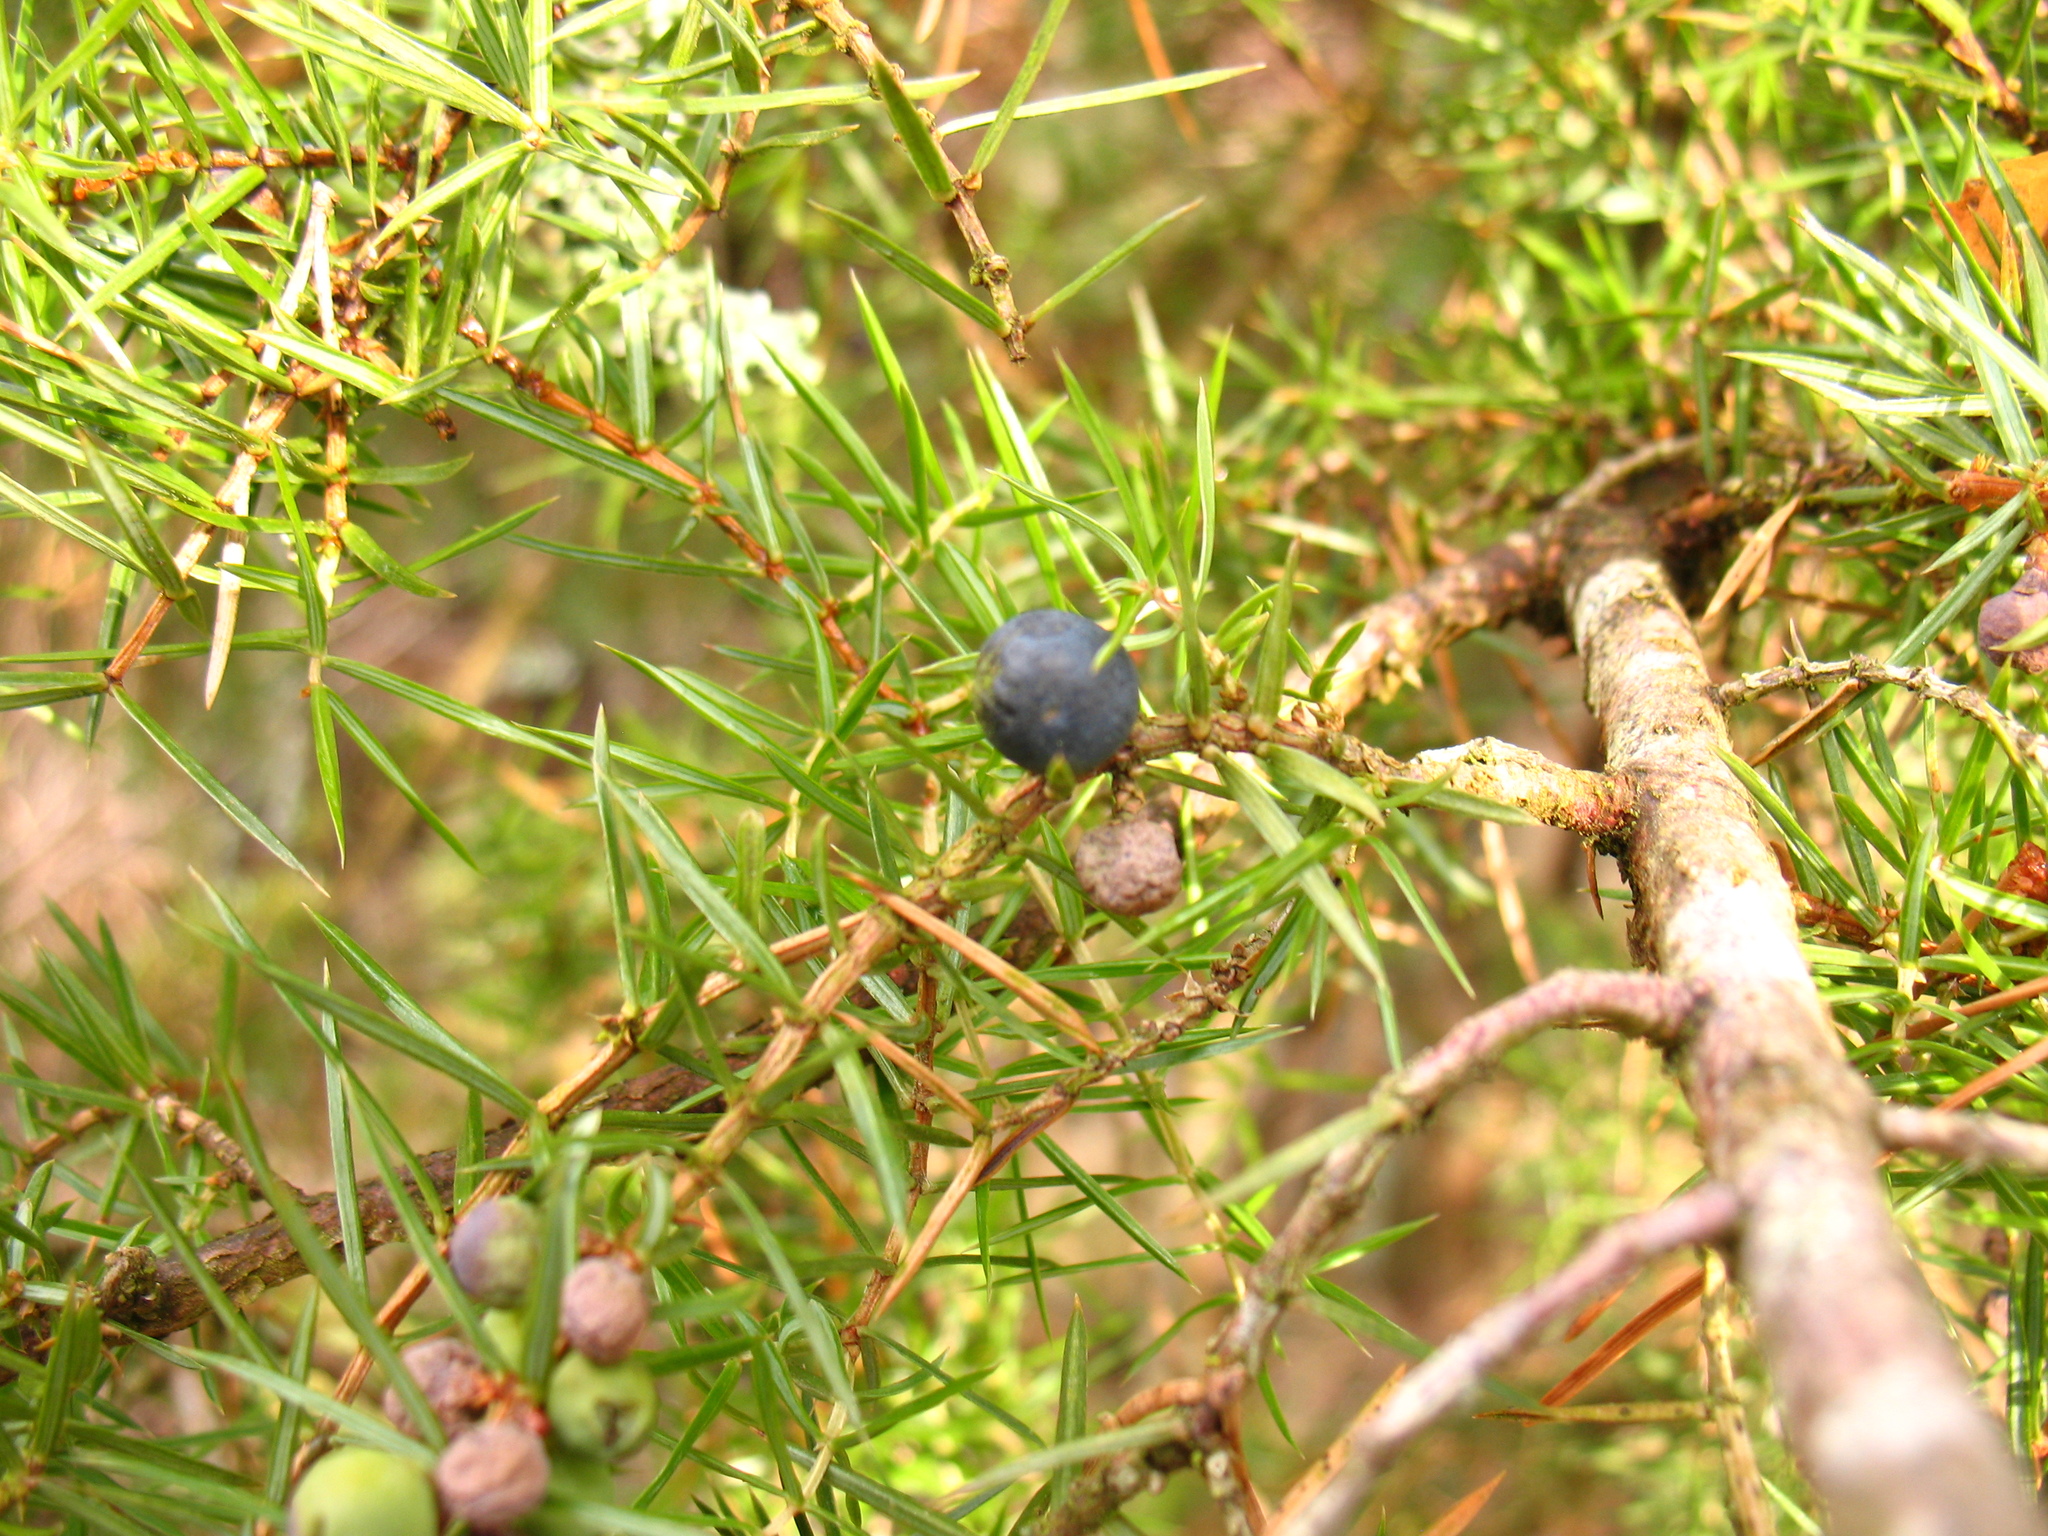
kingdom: Plantae
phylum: Tracheophyta
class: Pinopsida
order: Pinales
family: Cupressaceae
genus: Juniperus
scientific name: Juniperus communis
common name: Common juniper
